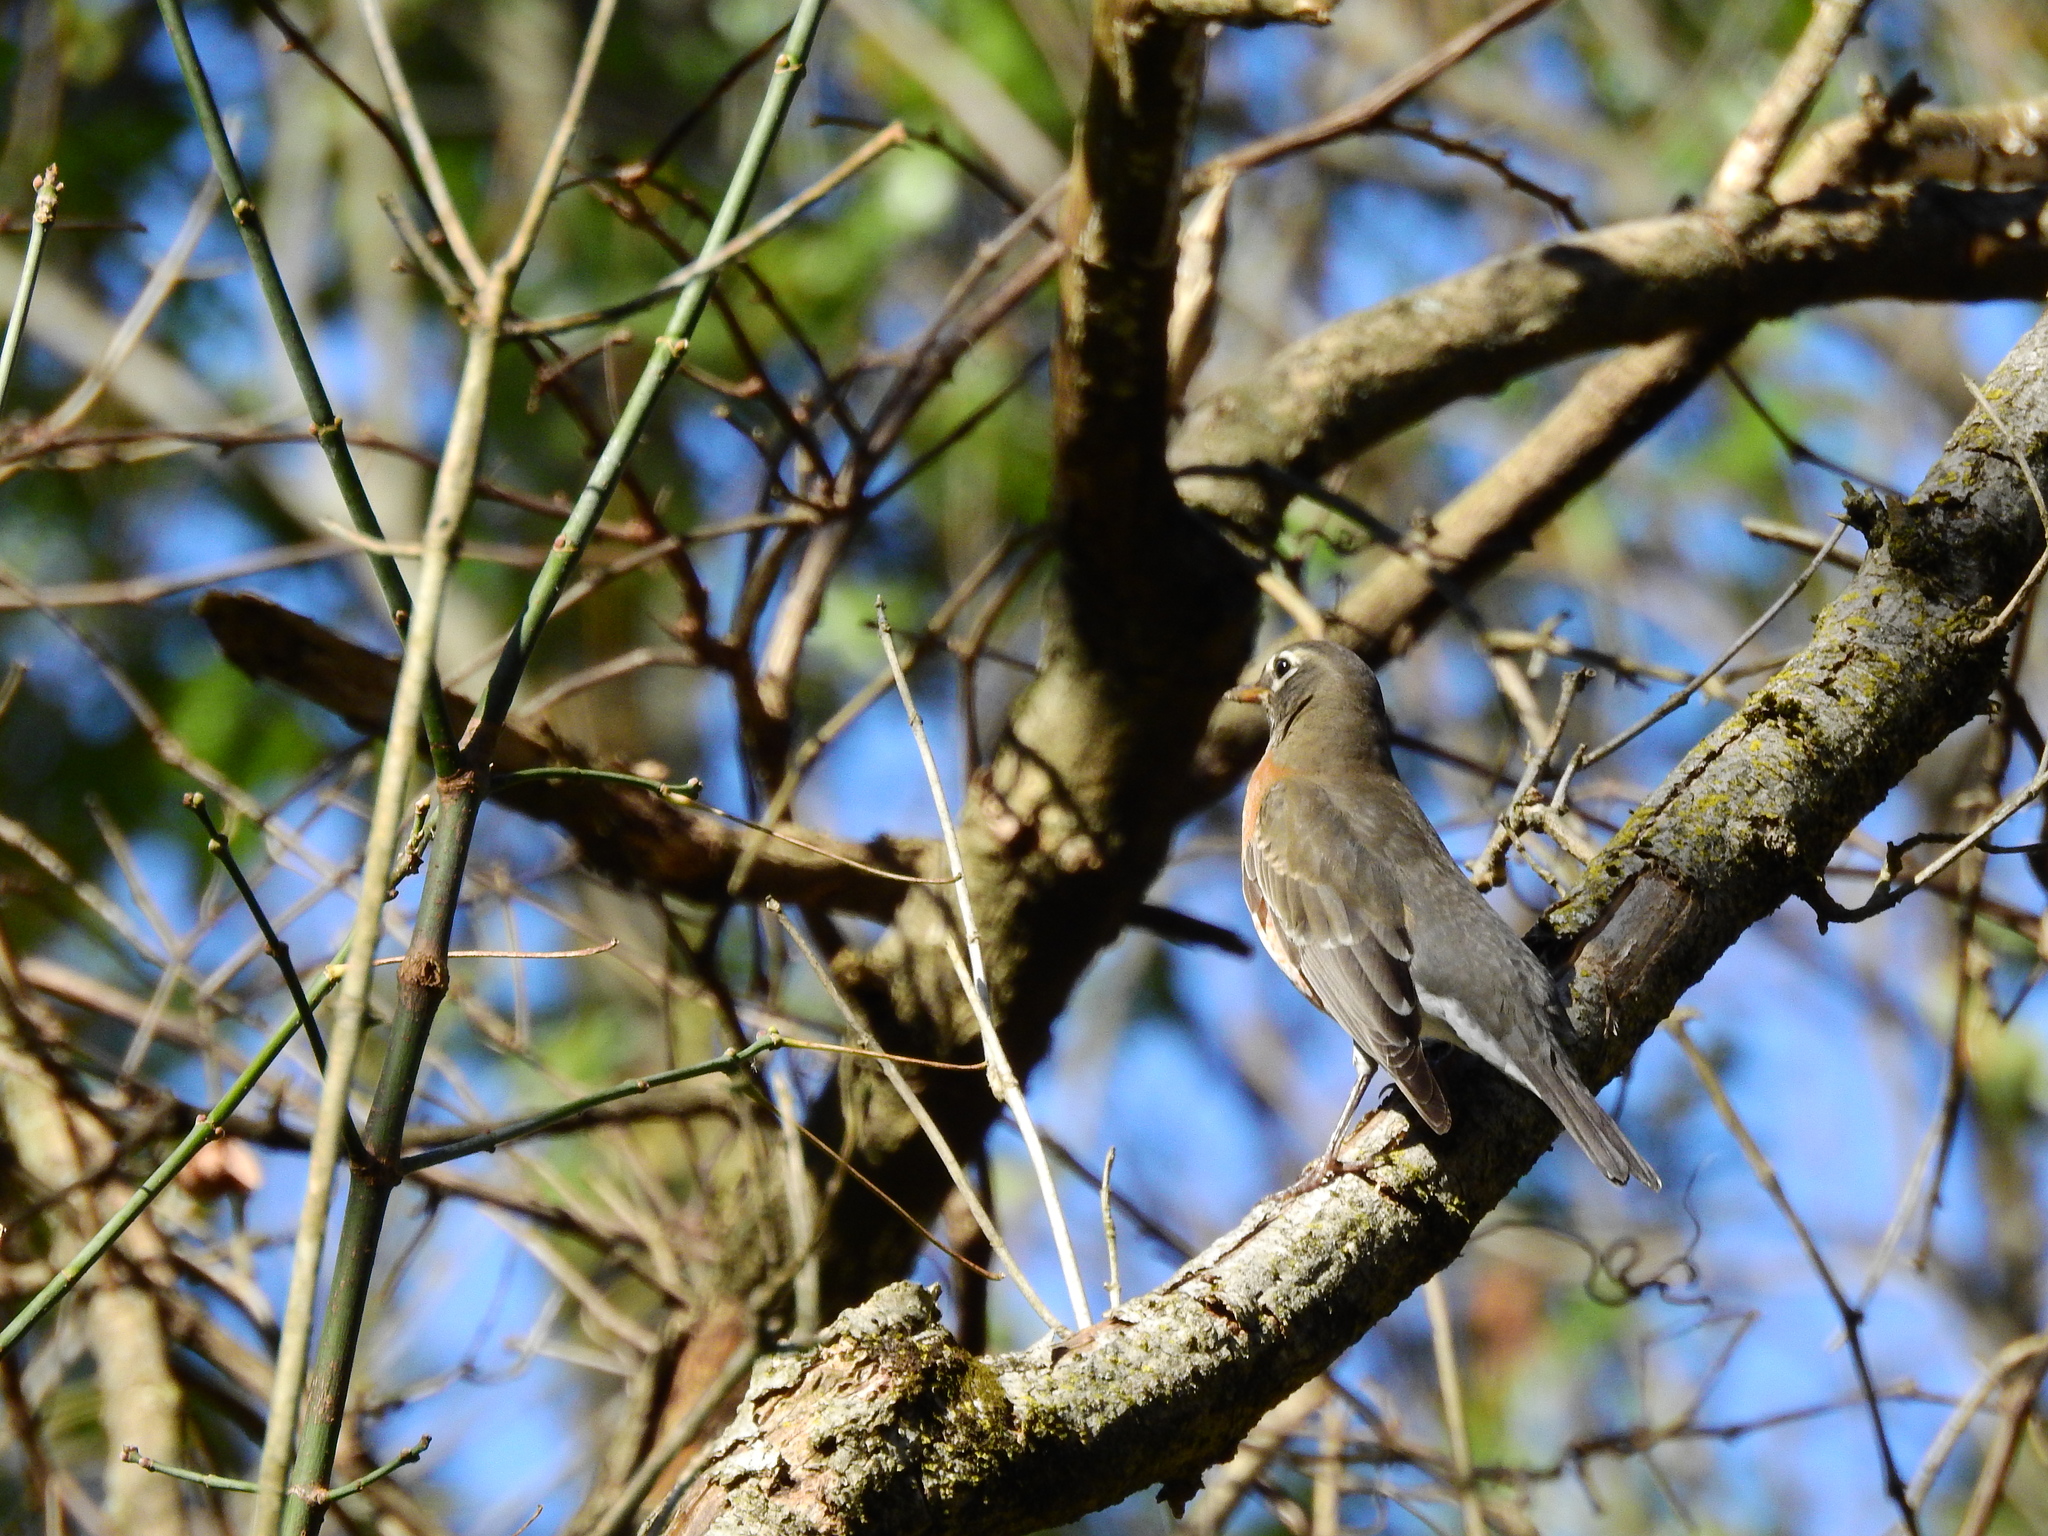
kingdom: Animalia
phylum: Chordata
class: Aves
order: Passeriformes
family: Turdidae
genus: Turdus
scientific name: Turdus migratorius
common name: American robin
